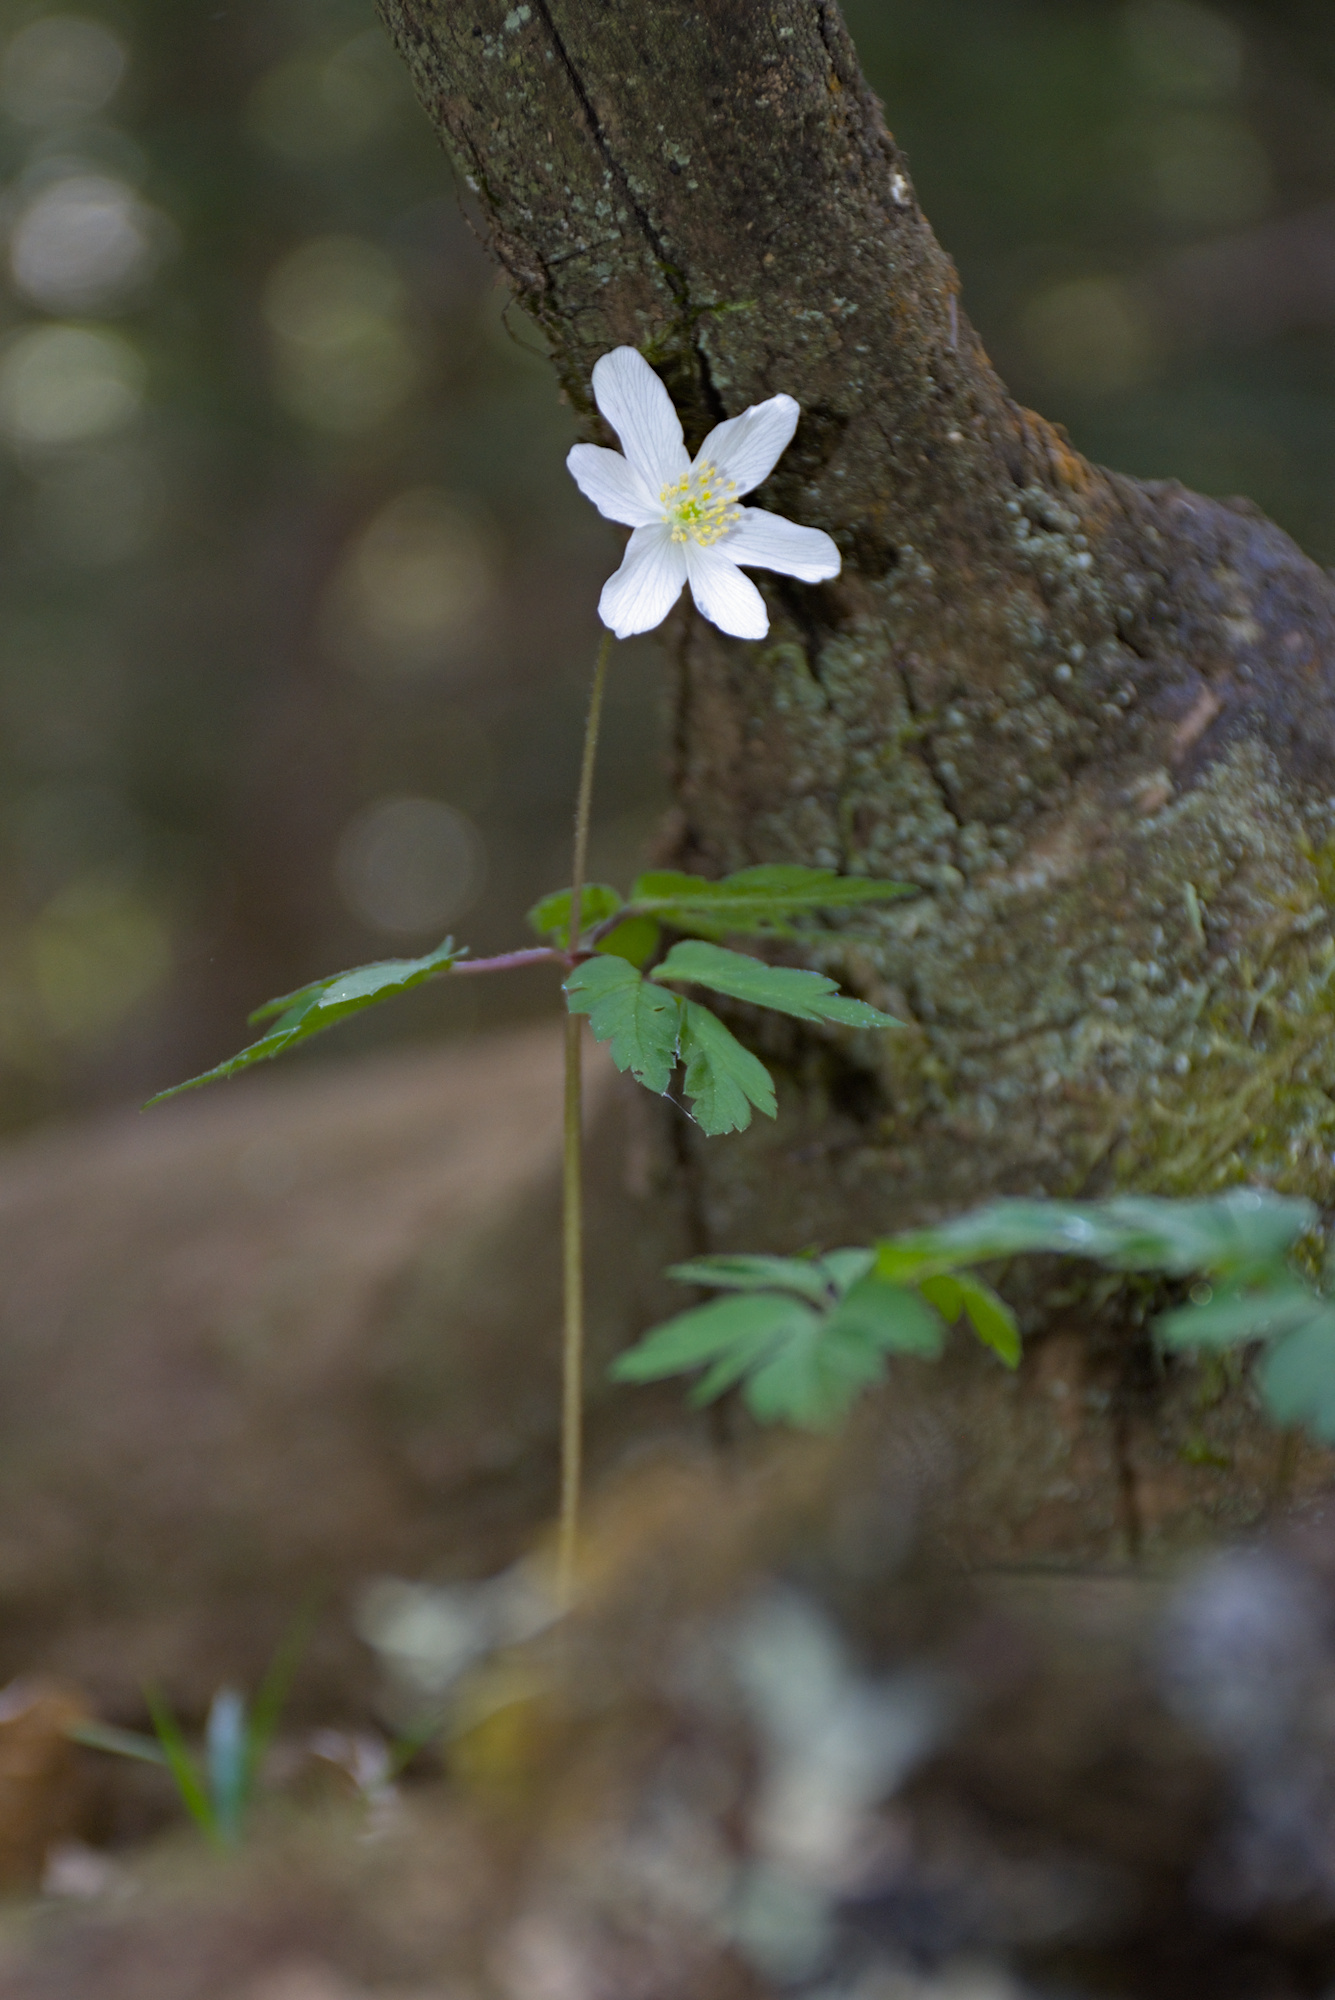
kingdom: Plantae
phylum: Tracheophyta
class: Magnoliopsida
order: Ranunculales
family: Ranunculaceae
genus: Anemone
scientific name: Anemone nemorosa
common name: Wood anemone
